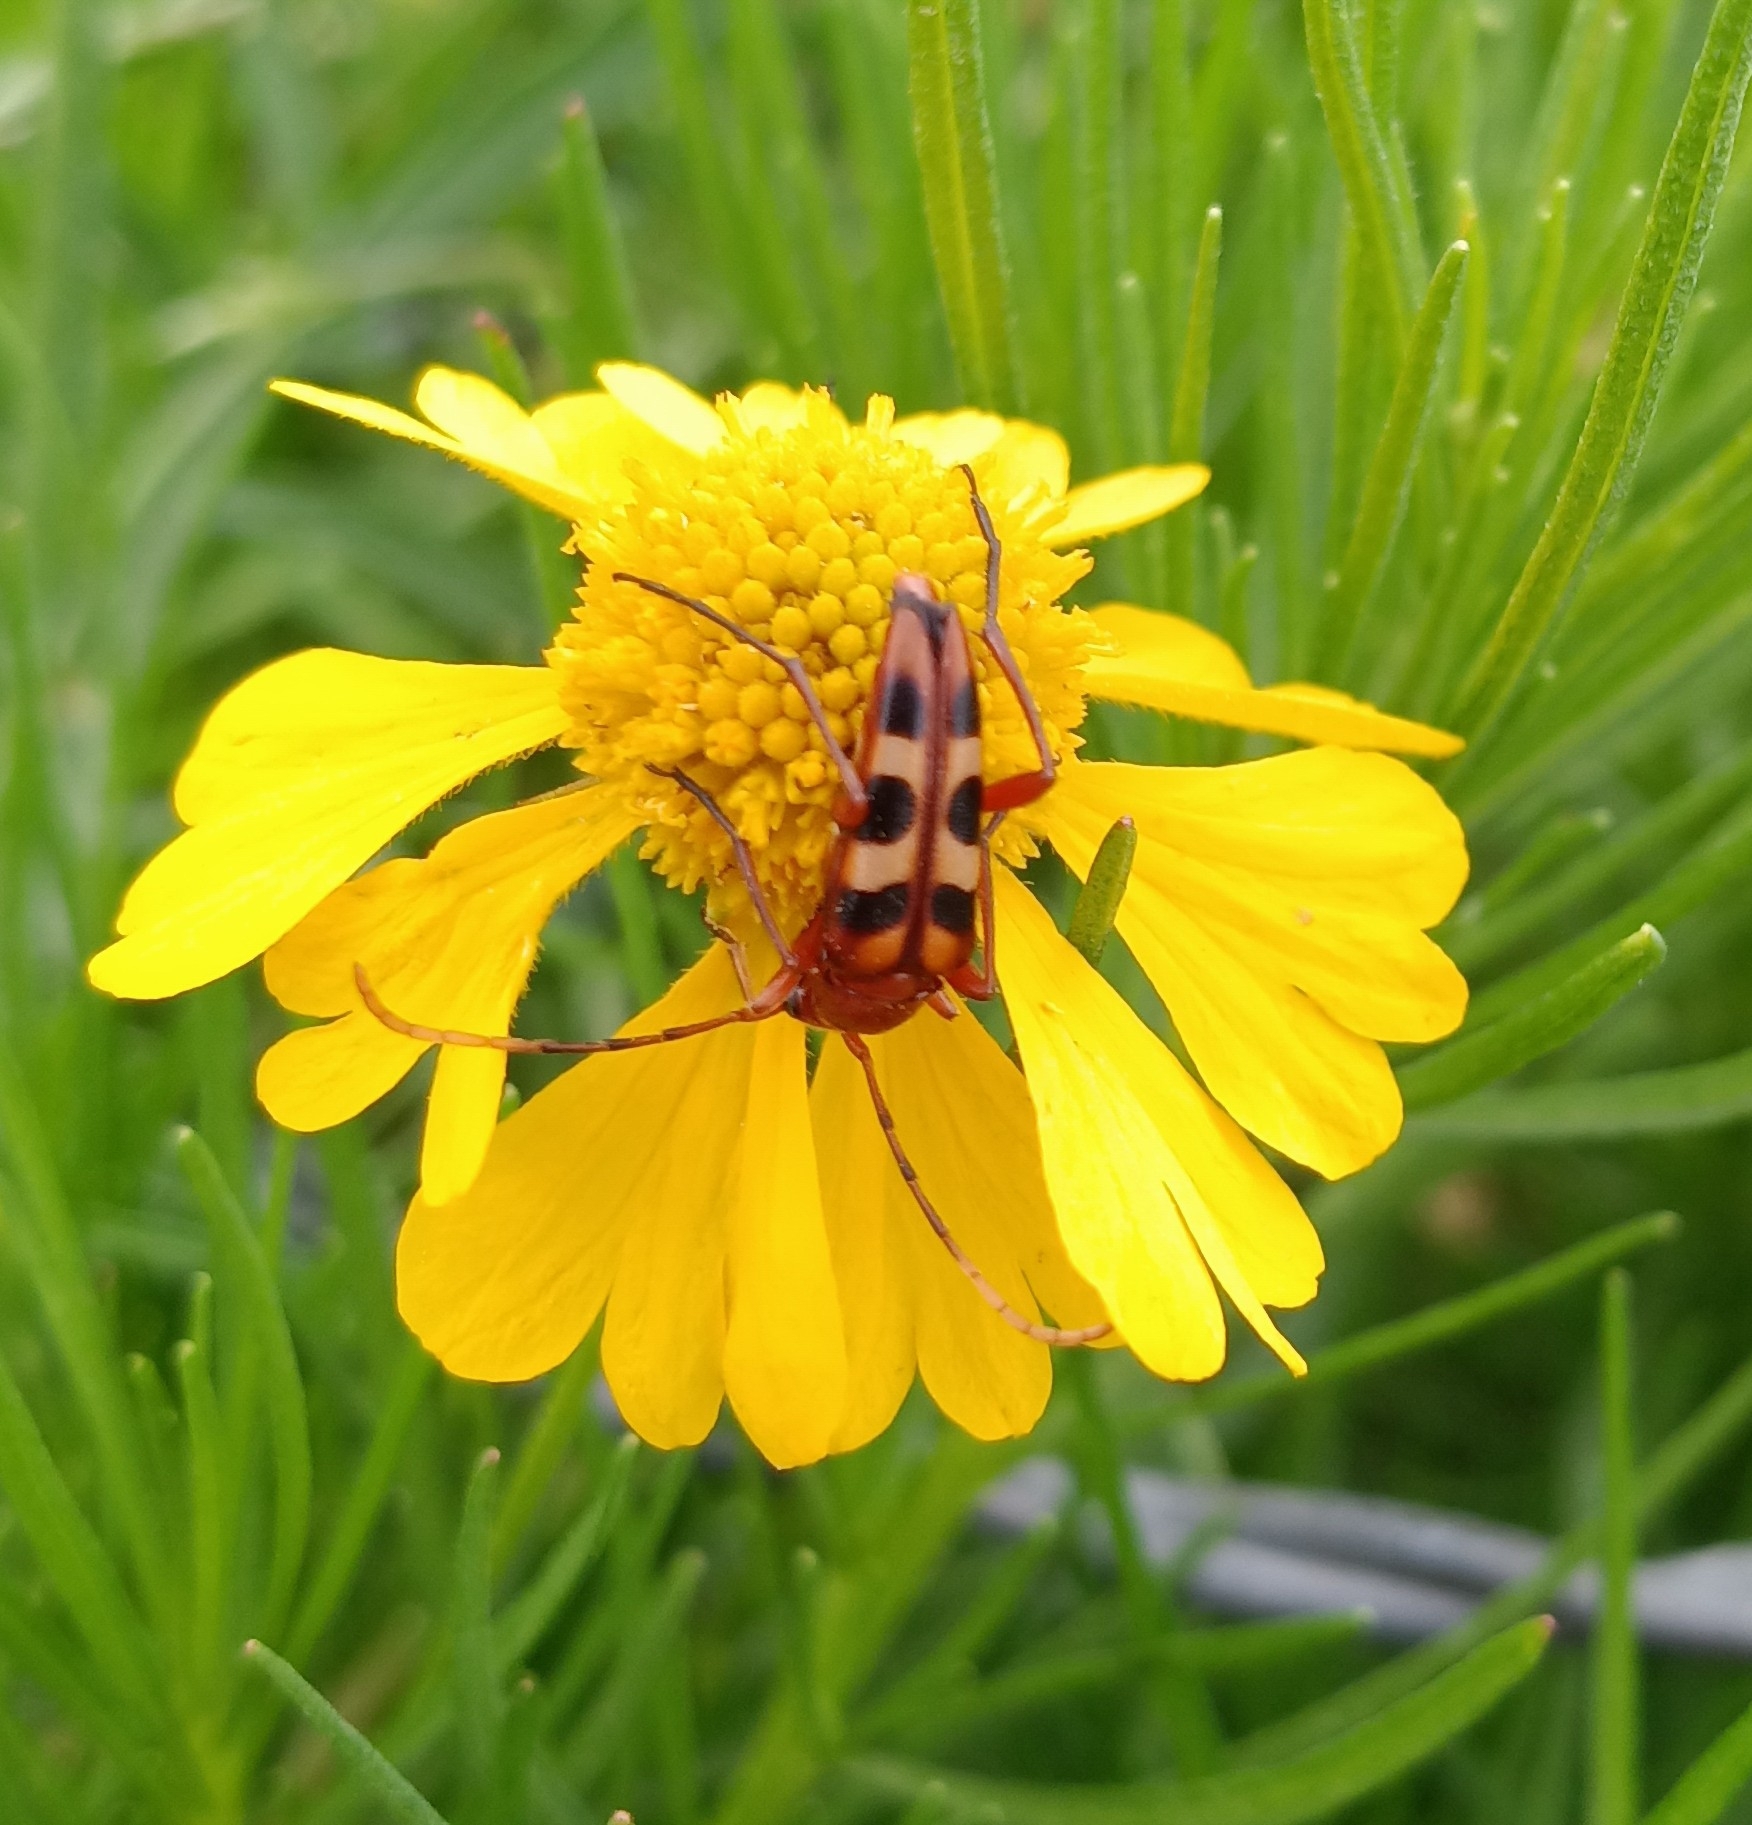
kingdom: Animalia
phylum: Arthropoda
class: Insecta
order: Coleoptera
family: Cerambycidae
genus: Strangalia
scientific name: Strangalia sexnotata
